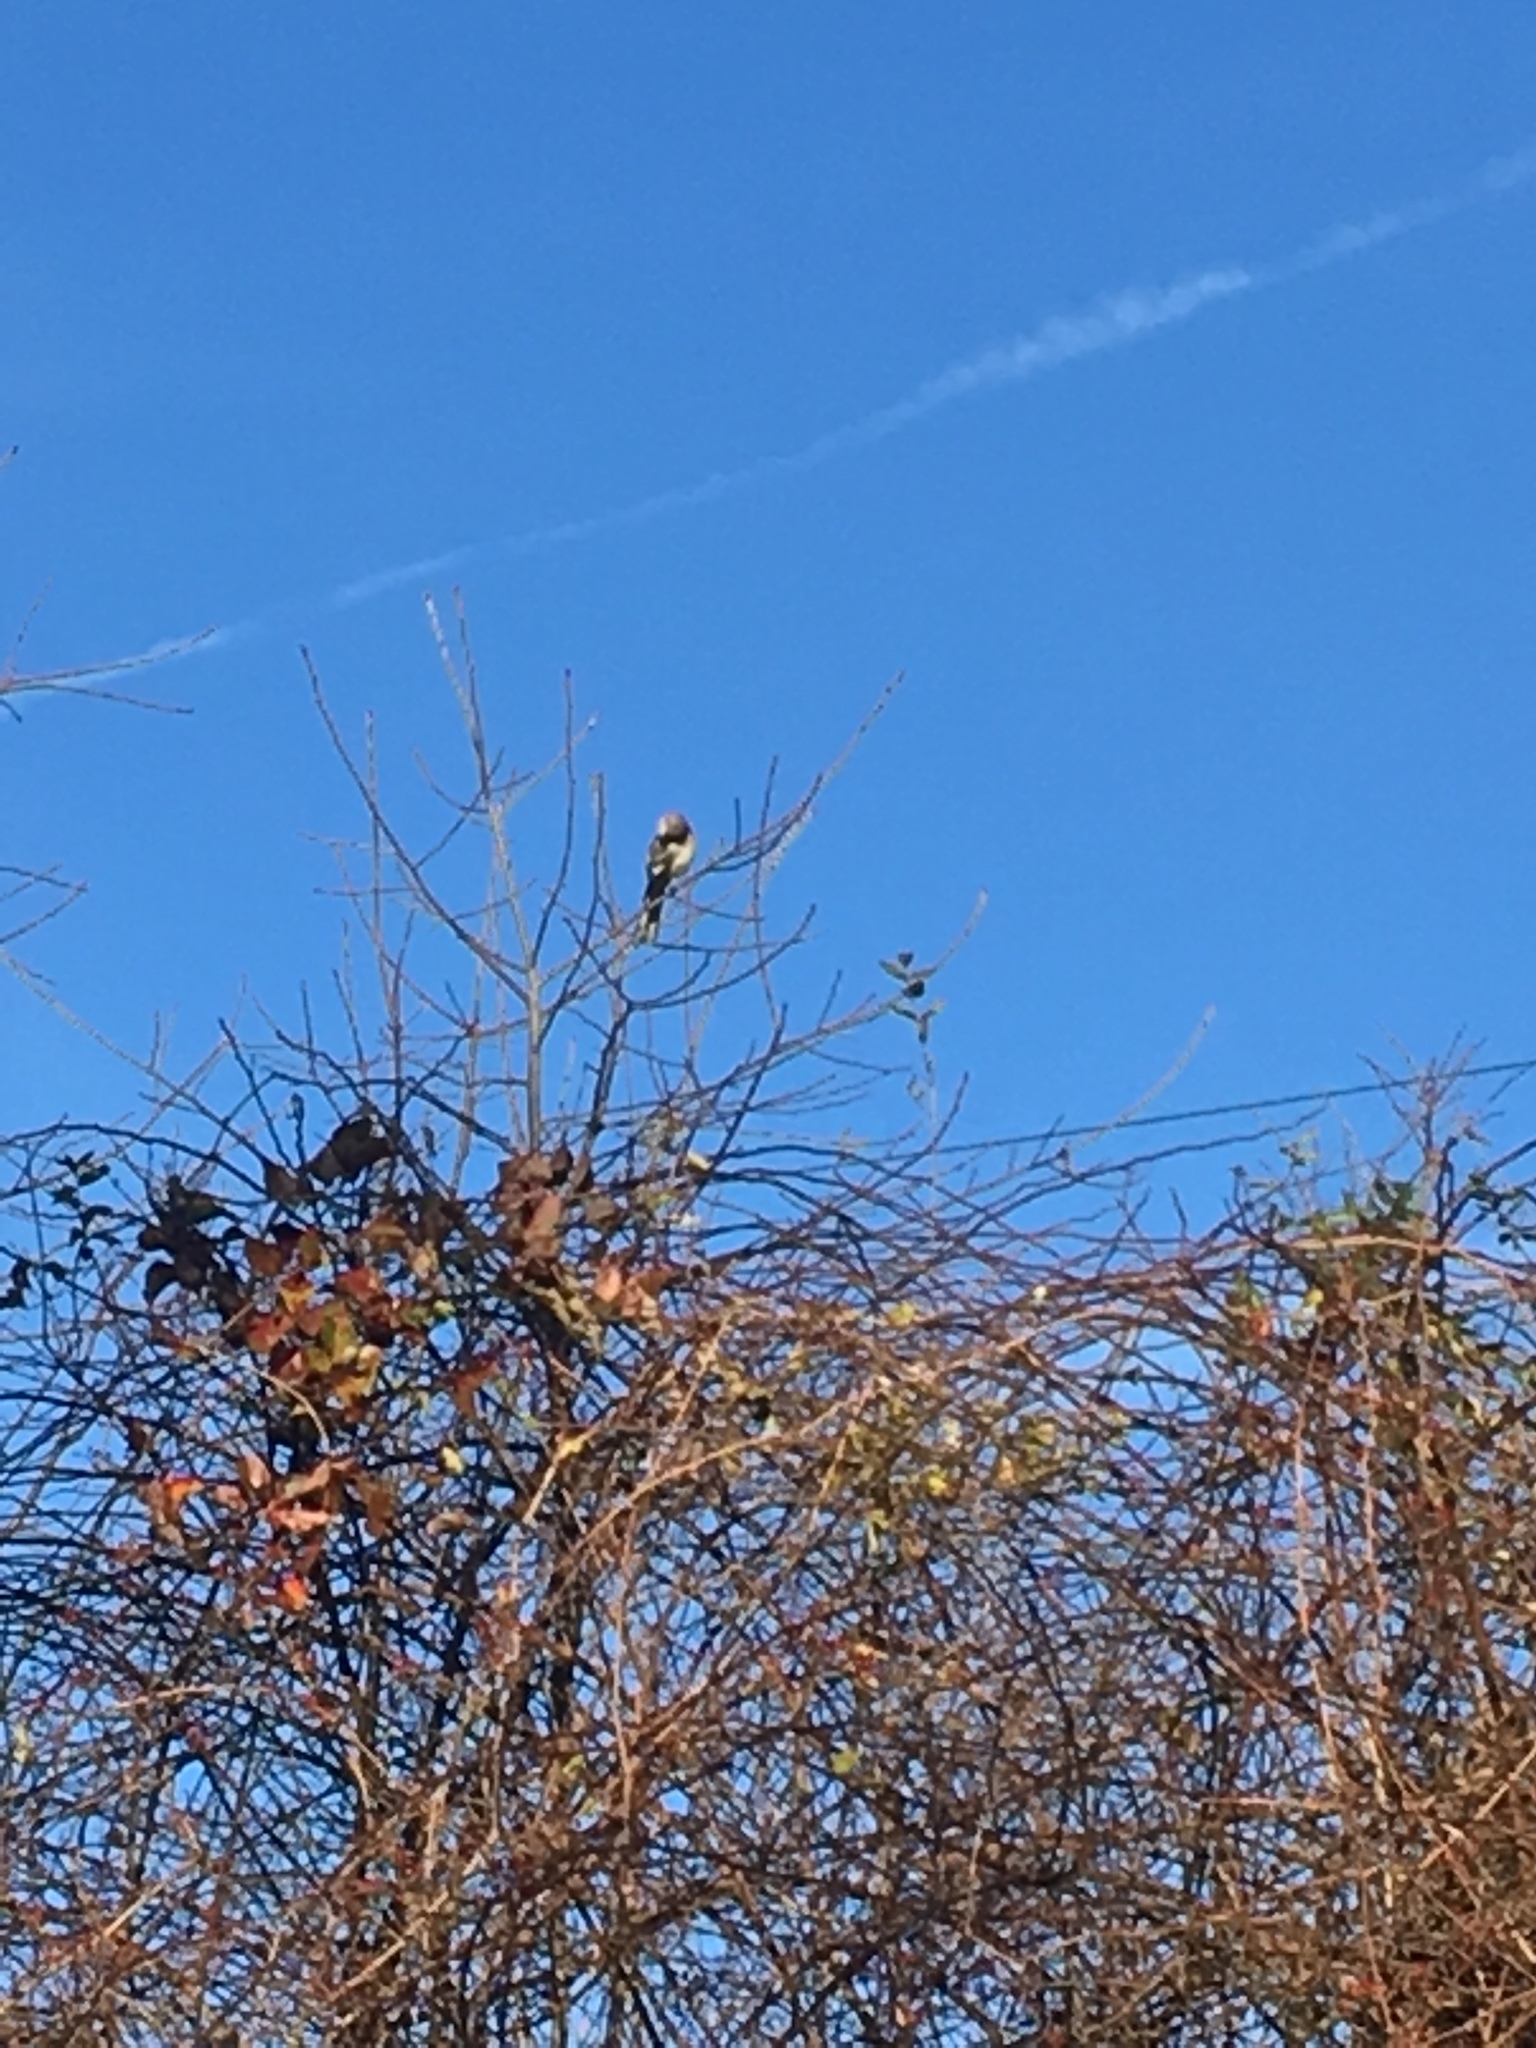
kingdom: Animalia
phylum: Chordata
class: Aves
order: Passeriformes
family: Mimidae
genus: Mimus
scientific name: Mimus polyglottos
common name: Northern mockingbird
